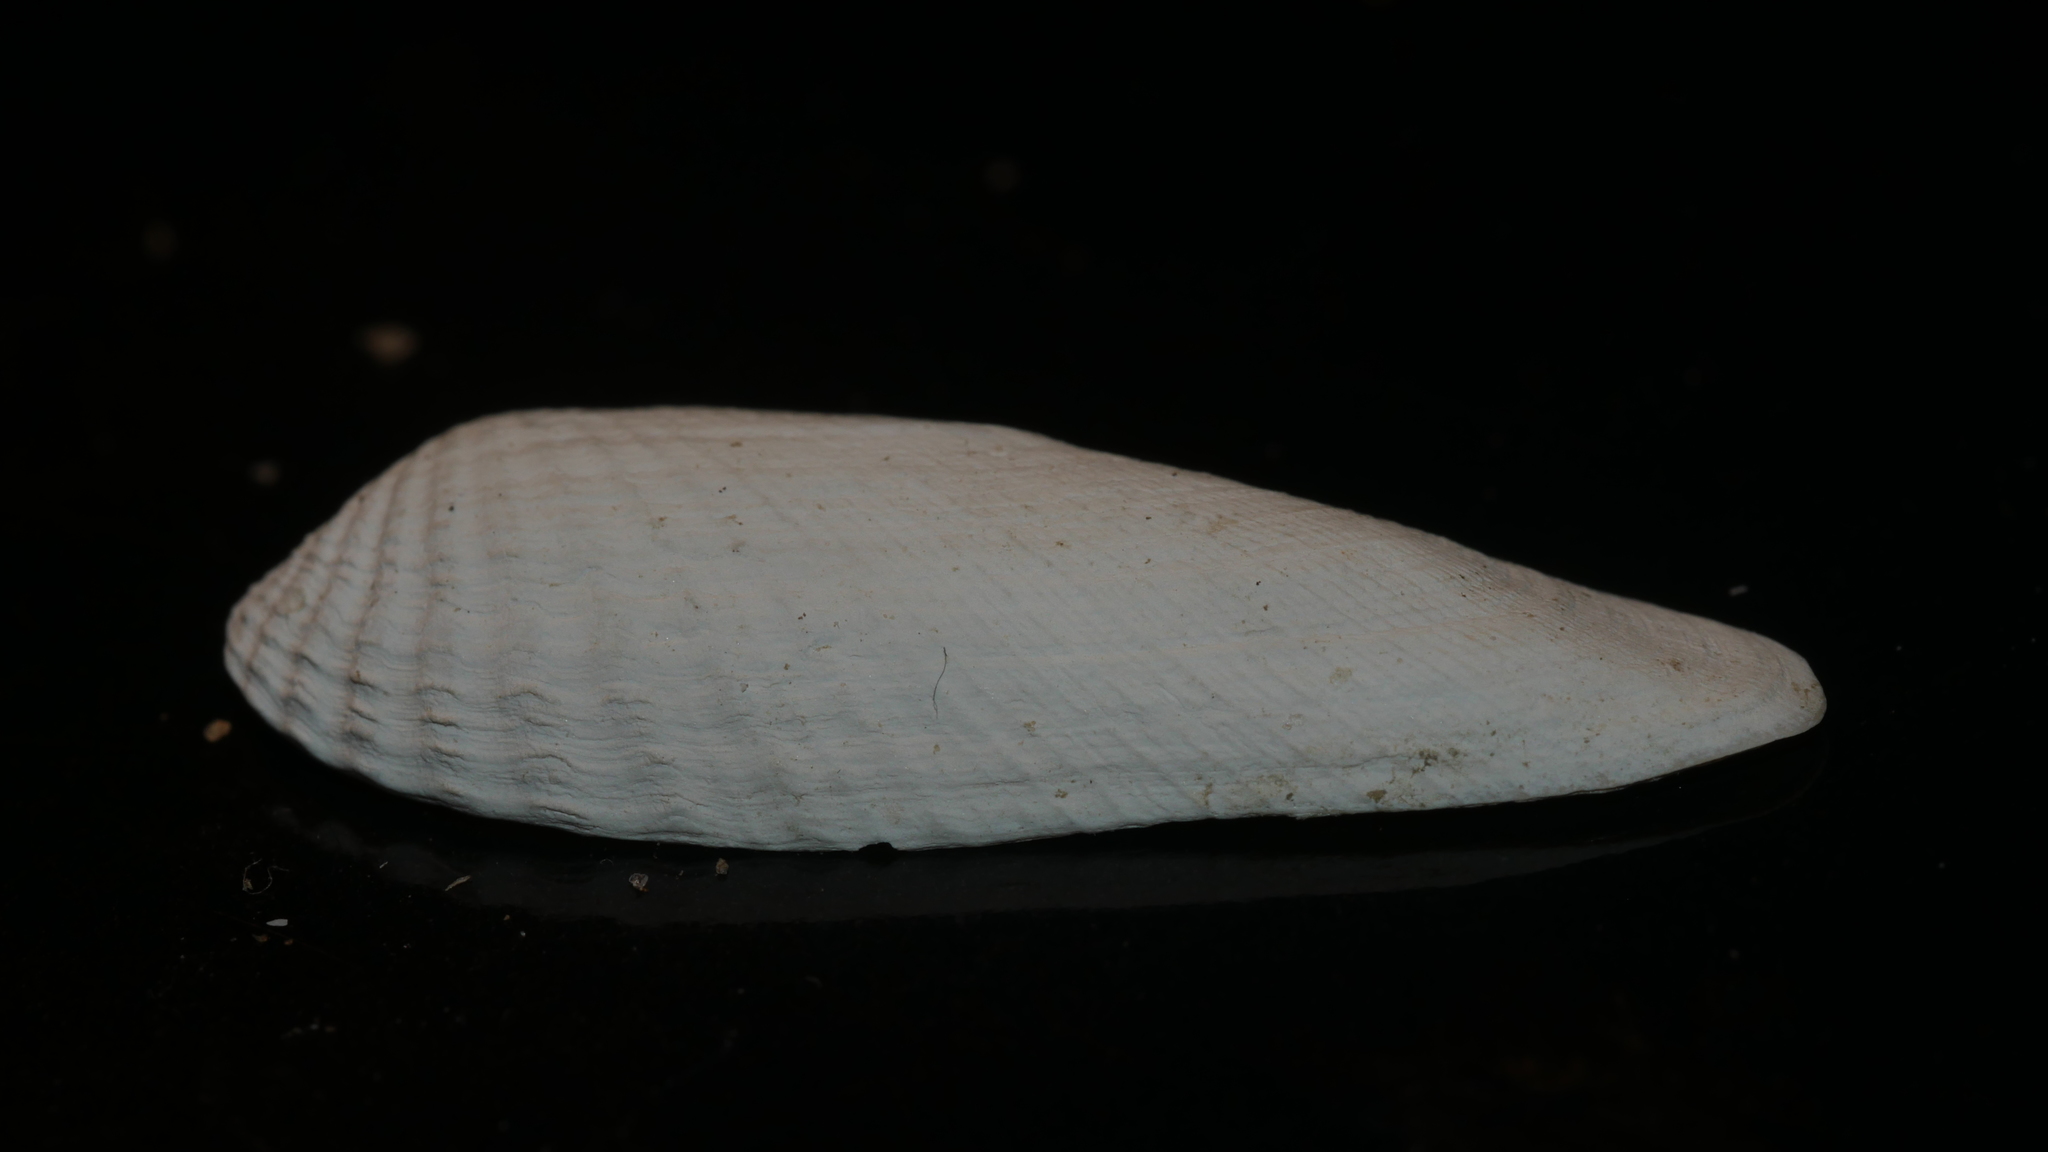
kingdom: Animalia
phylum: Mollusca
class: Bivalvia
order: Venerida
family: Veneridae
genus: Petricolaria
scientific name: Petricolaria pholadiformis
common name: American piddock
